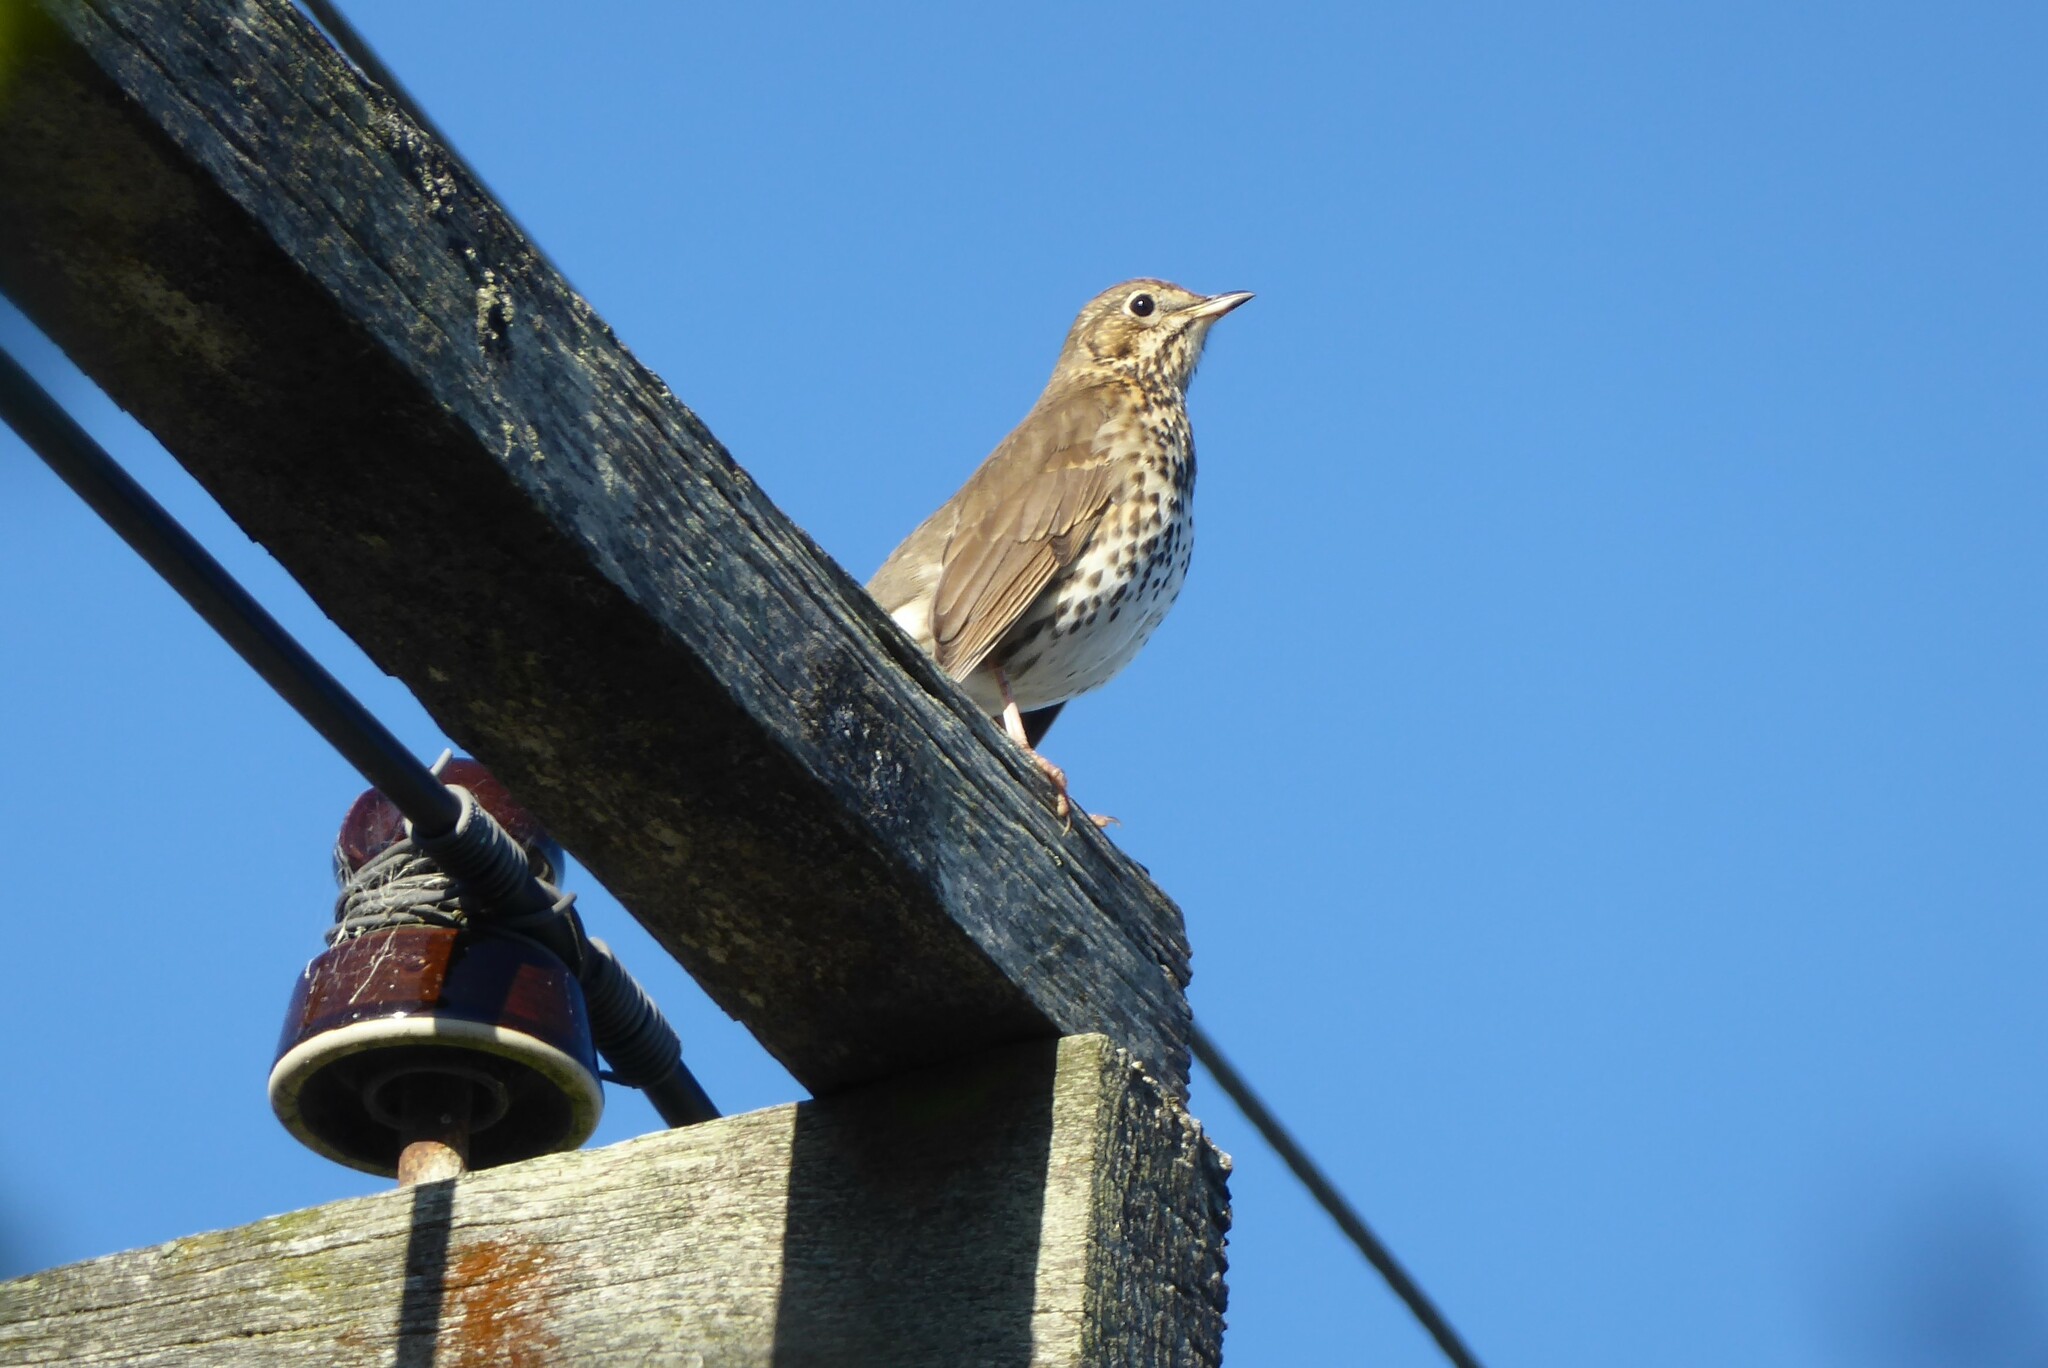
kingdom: Animalia
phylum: Chordata
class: Aves
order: Passeriformes
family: Turdidae
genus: Turdus
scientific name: Turdus philomelos
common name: Song thrush
